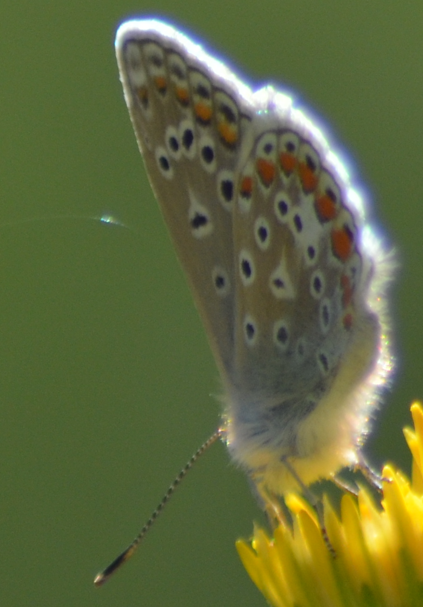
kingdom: Animalia
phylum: Arthropoda
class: Insecta
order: Lepidoptera
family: Lycaenidae
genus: Polyommatus
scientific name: Polyommatus icarus
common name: Common blue
